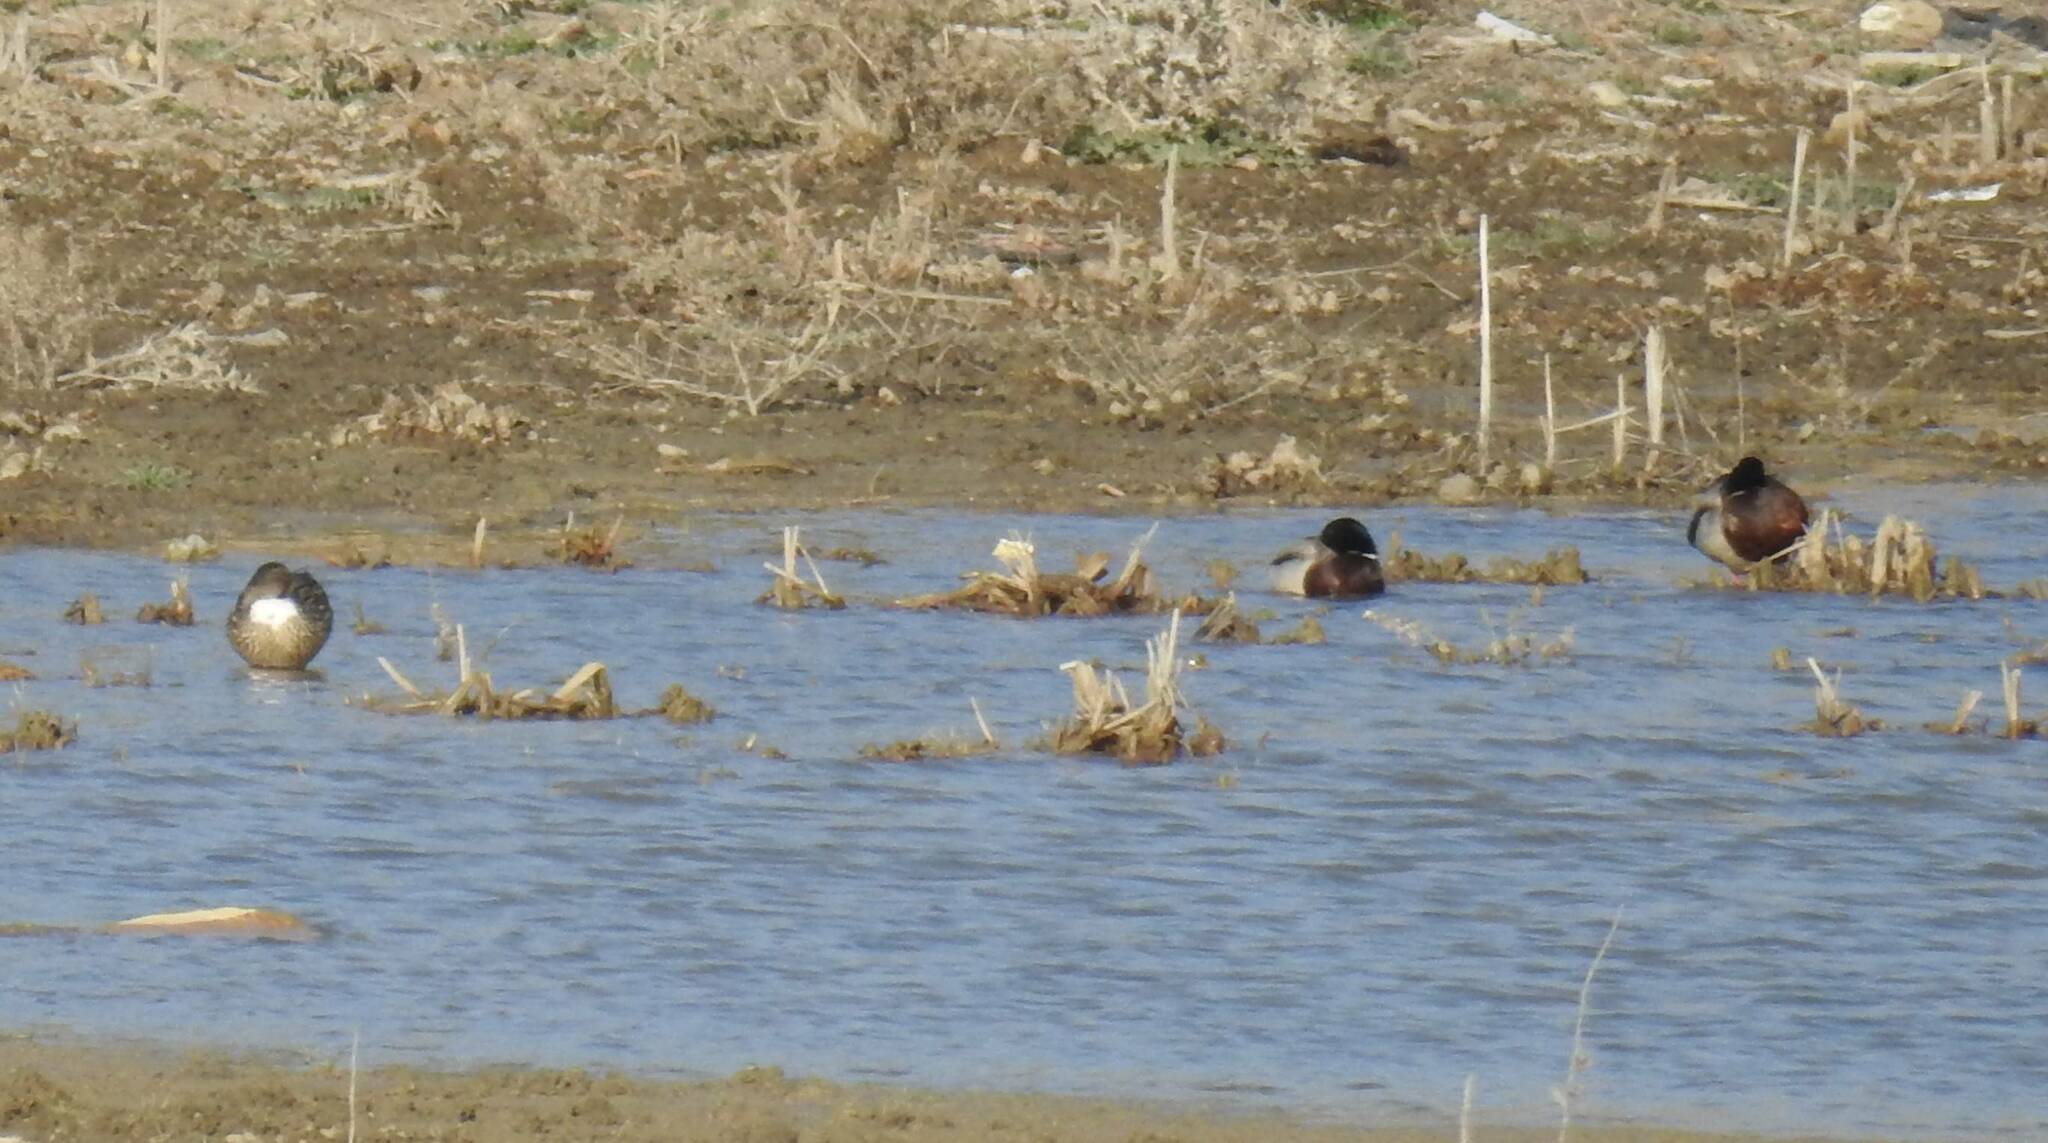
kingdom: Animalia
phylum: Chordata
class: Aves
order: Anseriformes
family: Anatidae
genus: Anas
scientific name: Anas platyrhynchos
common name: Mallard
